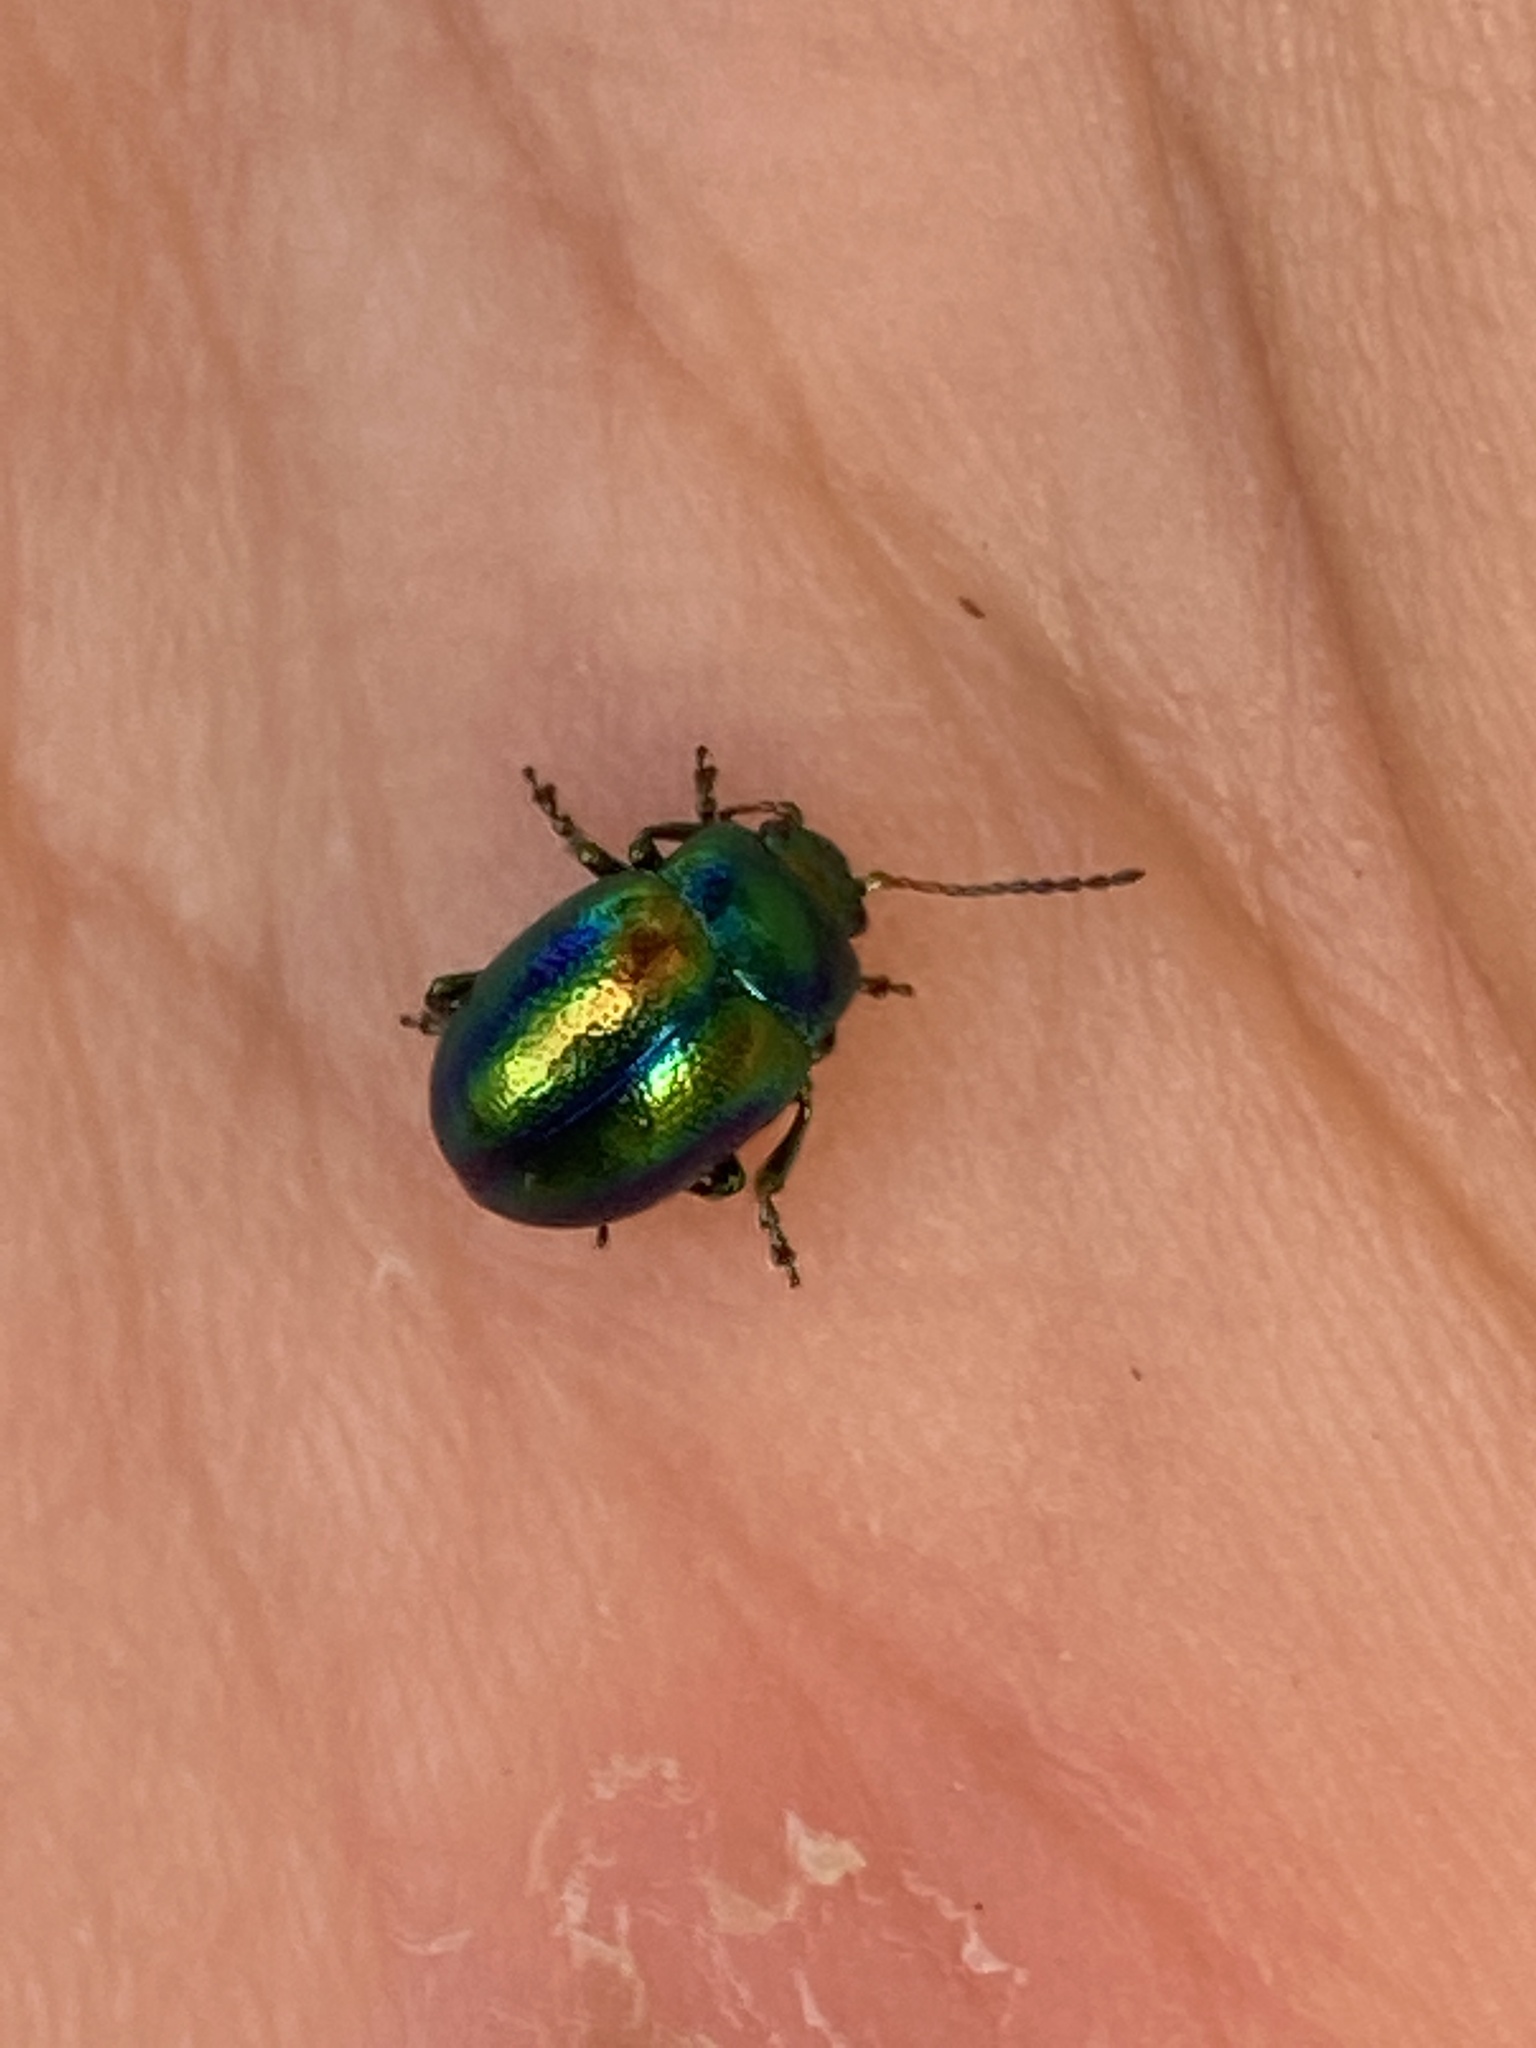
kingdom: Animalia
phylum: Arthropoda
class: Insecta
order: Coleoptera
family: Chrysomelidae
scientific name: Chrysomelidae
